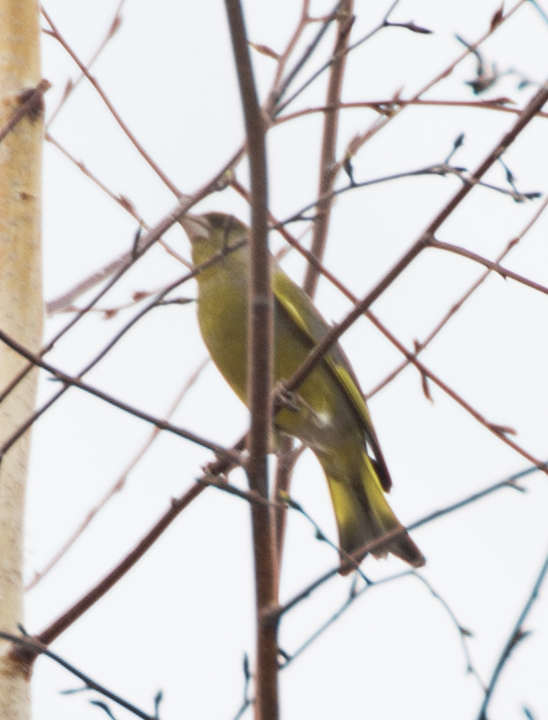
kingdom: Plantae
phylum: Tracheophyta
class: Liliopsida
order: Poales
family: Poaceae
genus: Chloris
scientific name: Chloris chloris
